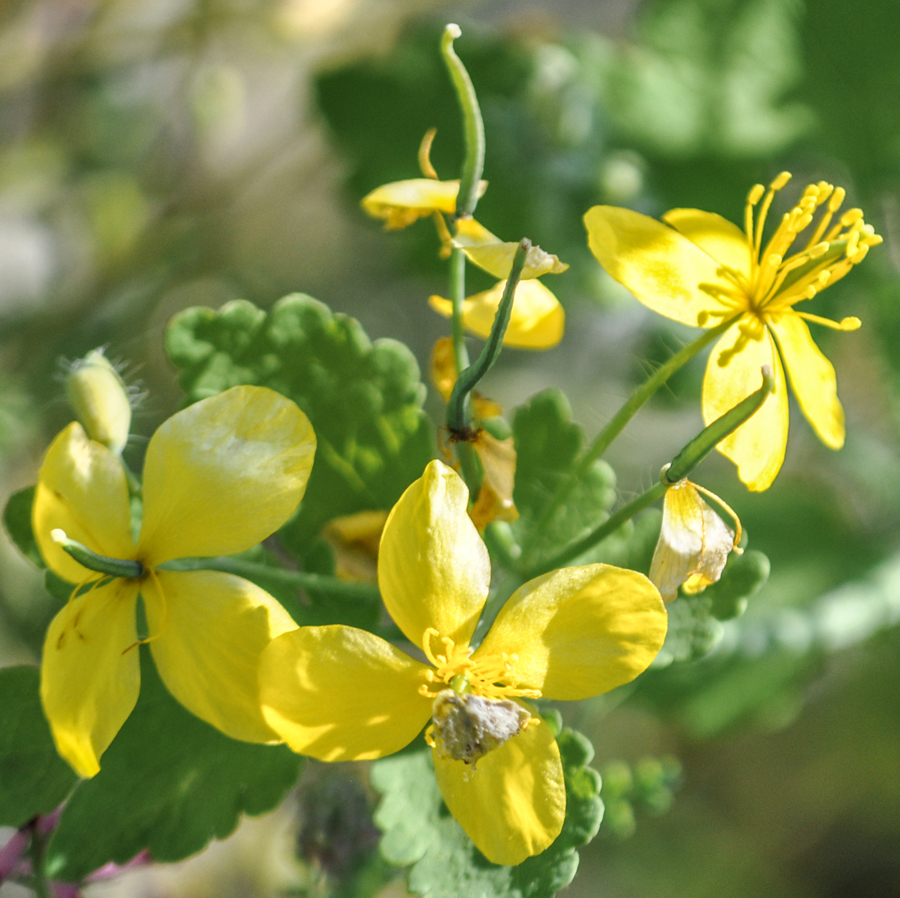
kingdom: Plantae
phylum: Tracheophyta
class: Magnoliopsida
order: Ranunculales
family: Papaveraceae
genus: Chelidonium
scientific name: Chelidonium majus
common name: Greater celandine
